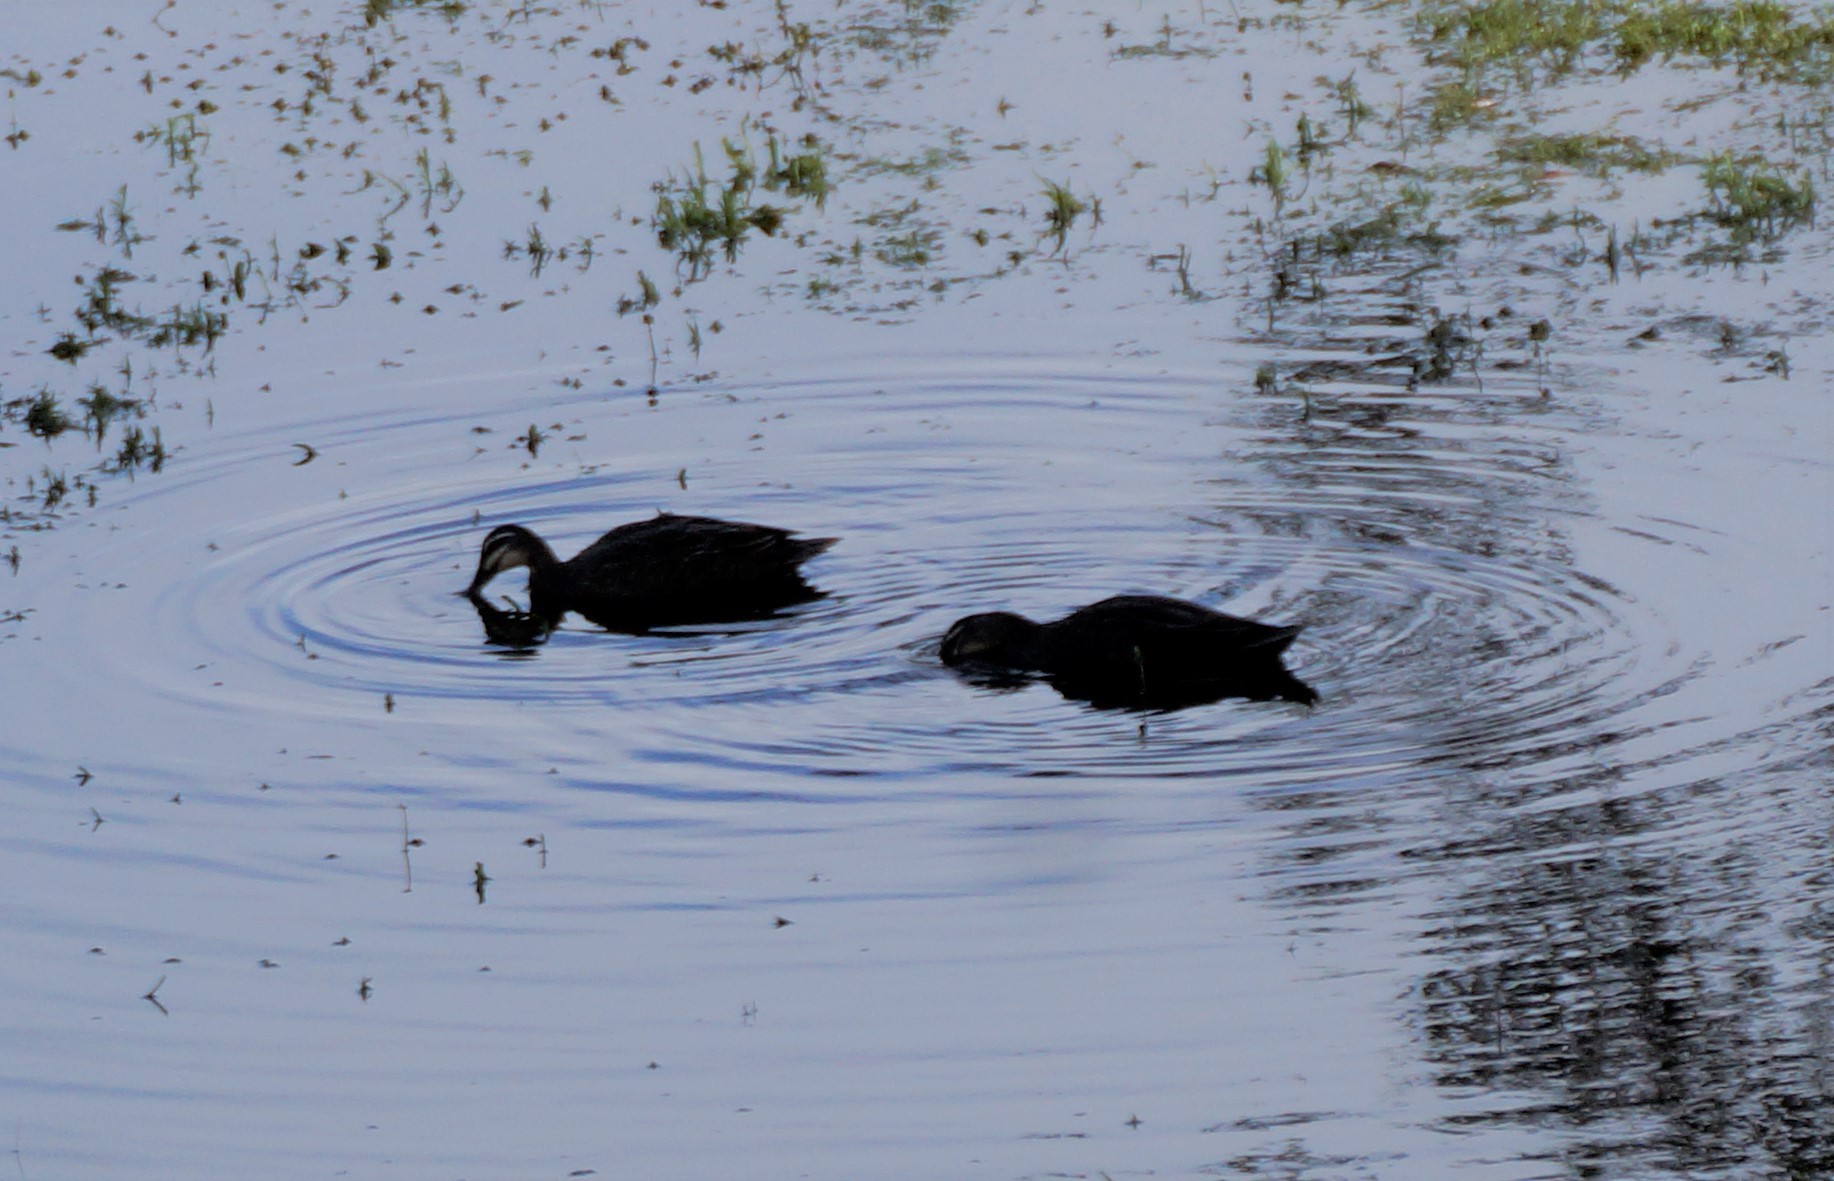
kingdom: Animalia
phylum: Chordata
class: Aves
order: Anseriformes
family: Anatidae
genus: Anas
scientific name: Anas superciliosa
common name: Pacific black duck
